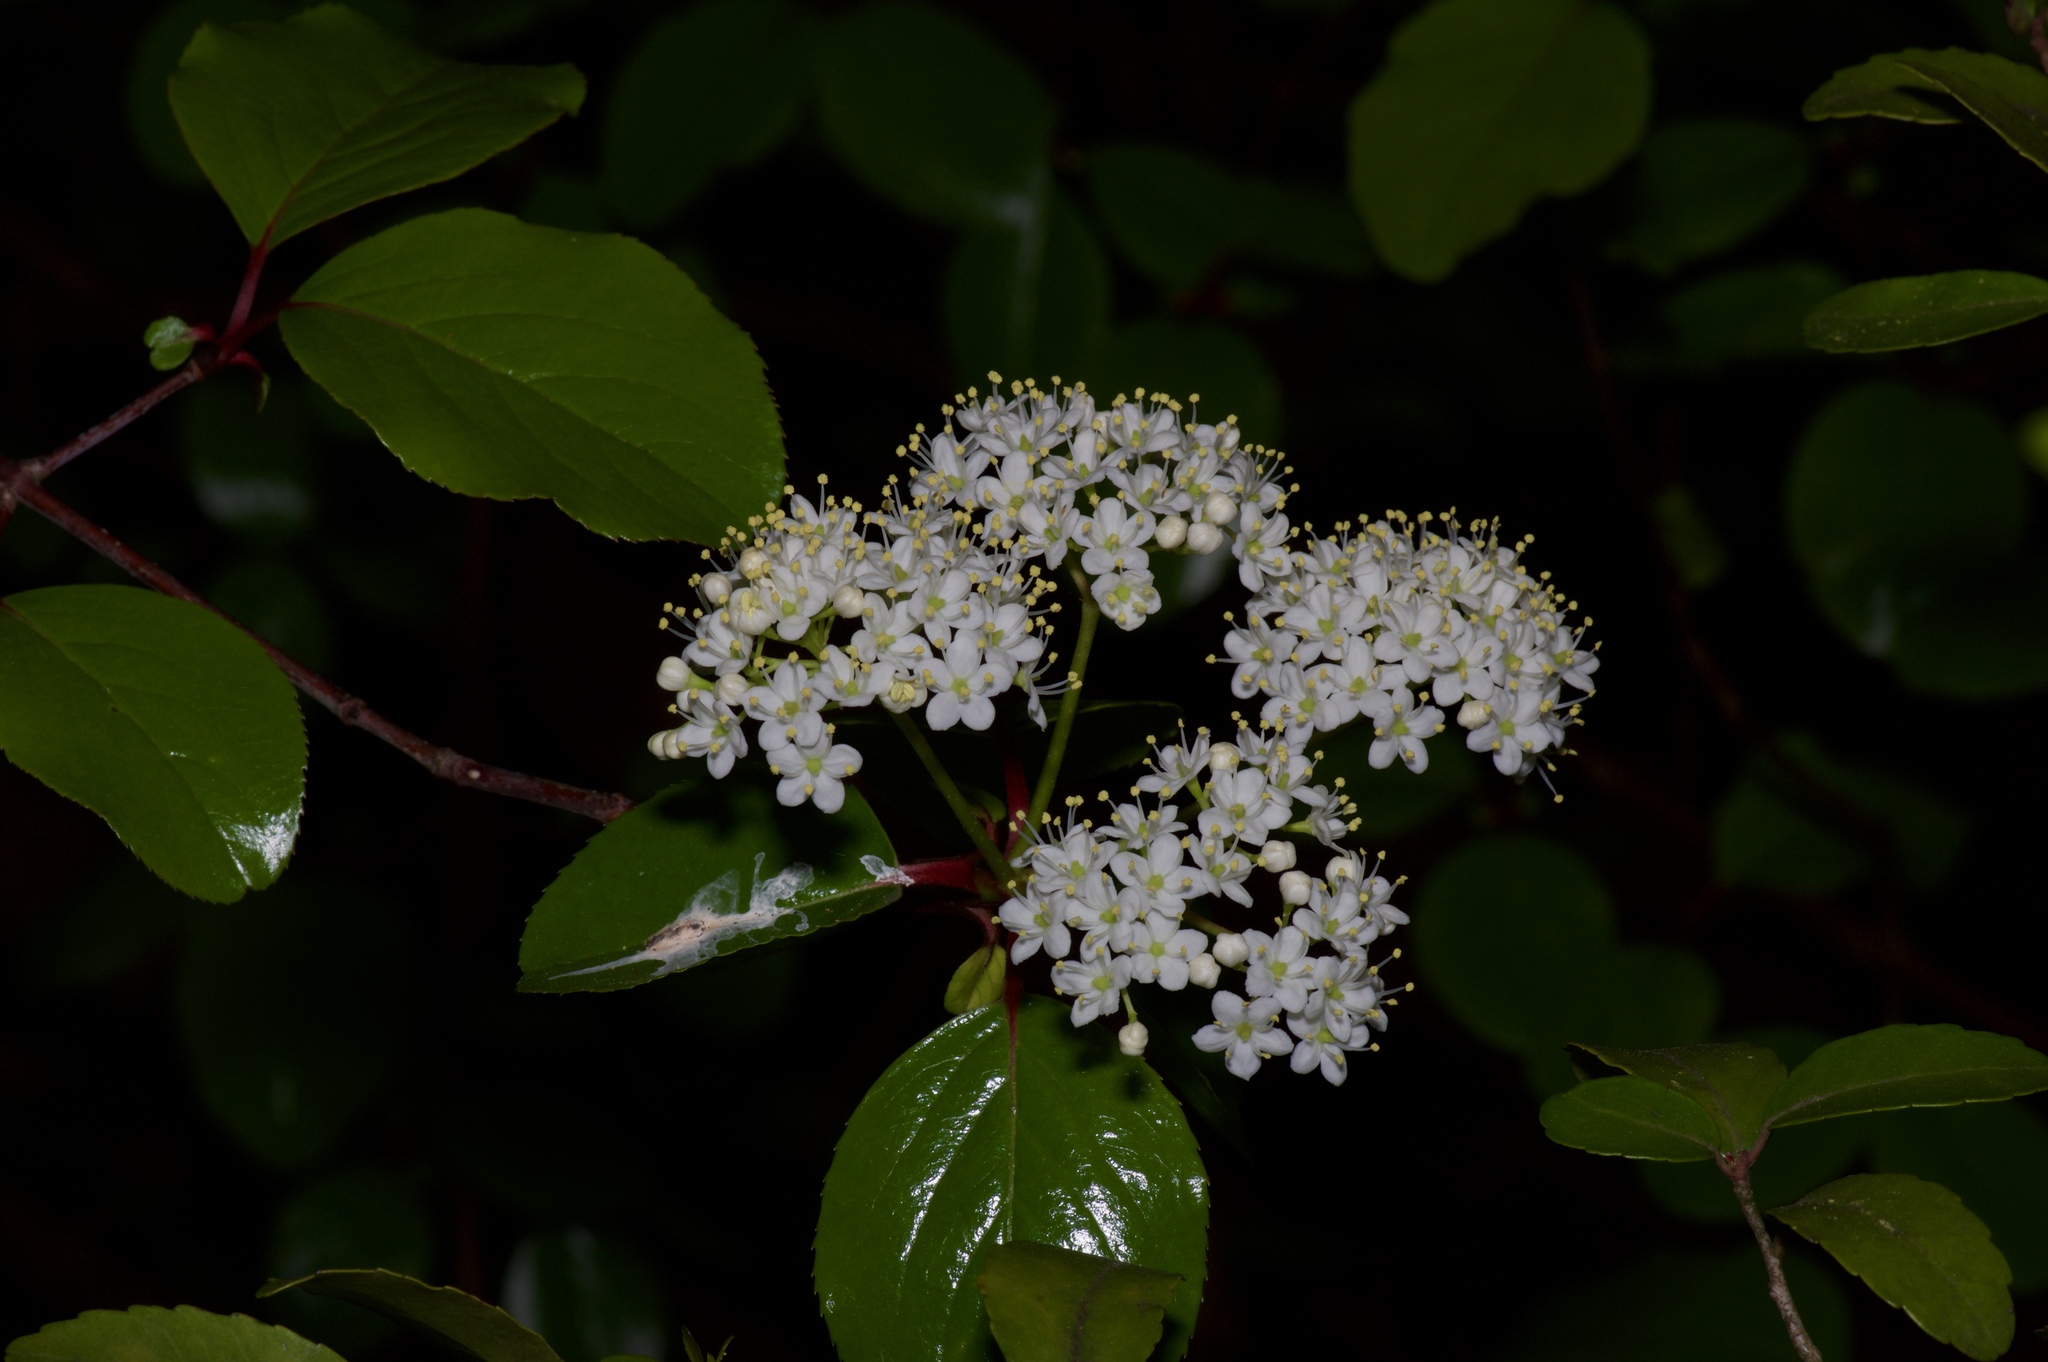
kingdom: Plantae
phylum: Tracheophyta
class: Magnoliopsida
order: Dipsacales
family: Viburnaceae
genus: Viburnum
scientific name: Viburnum rufidulum
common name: Blue haw
